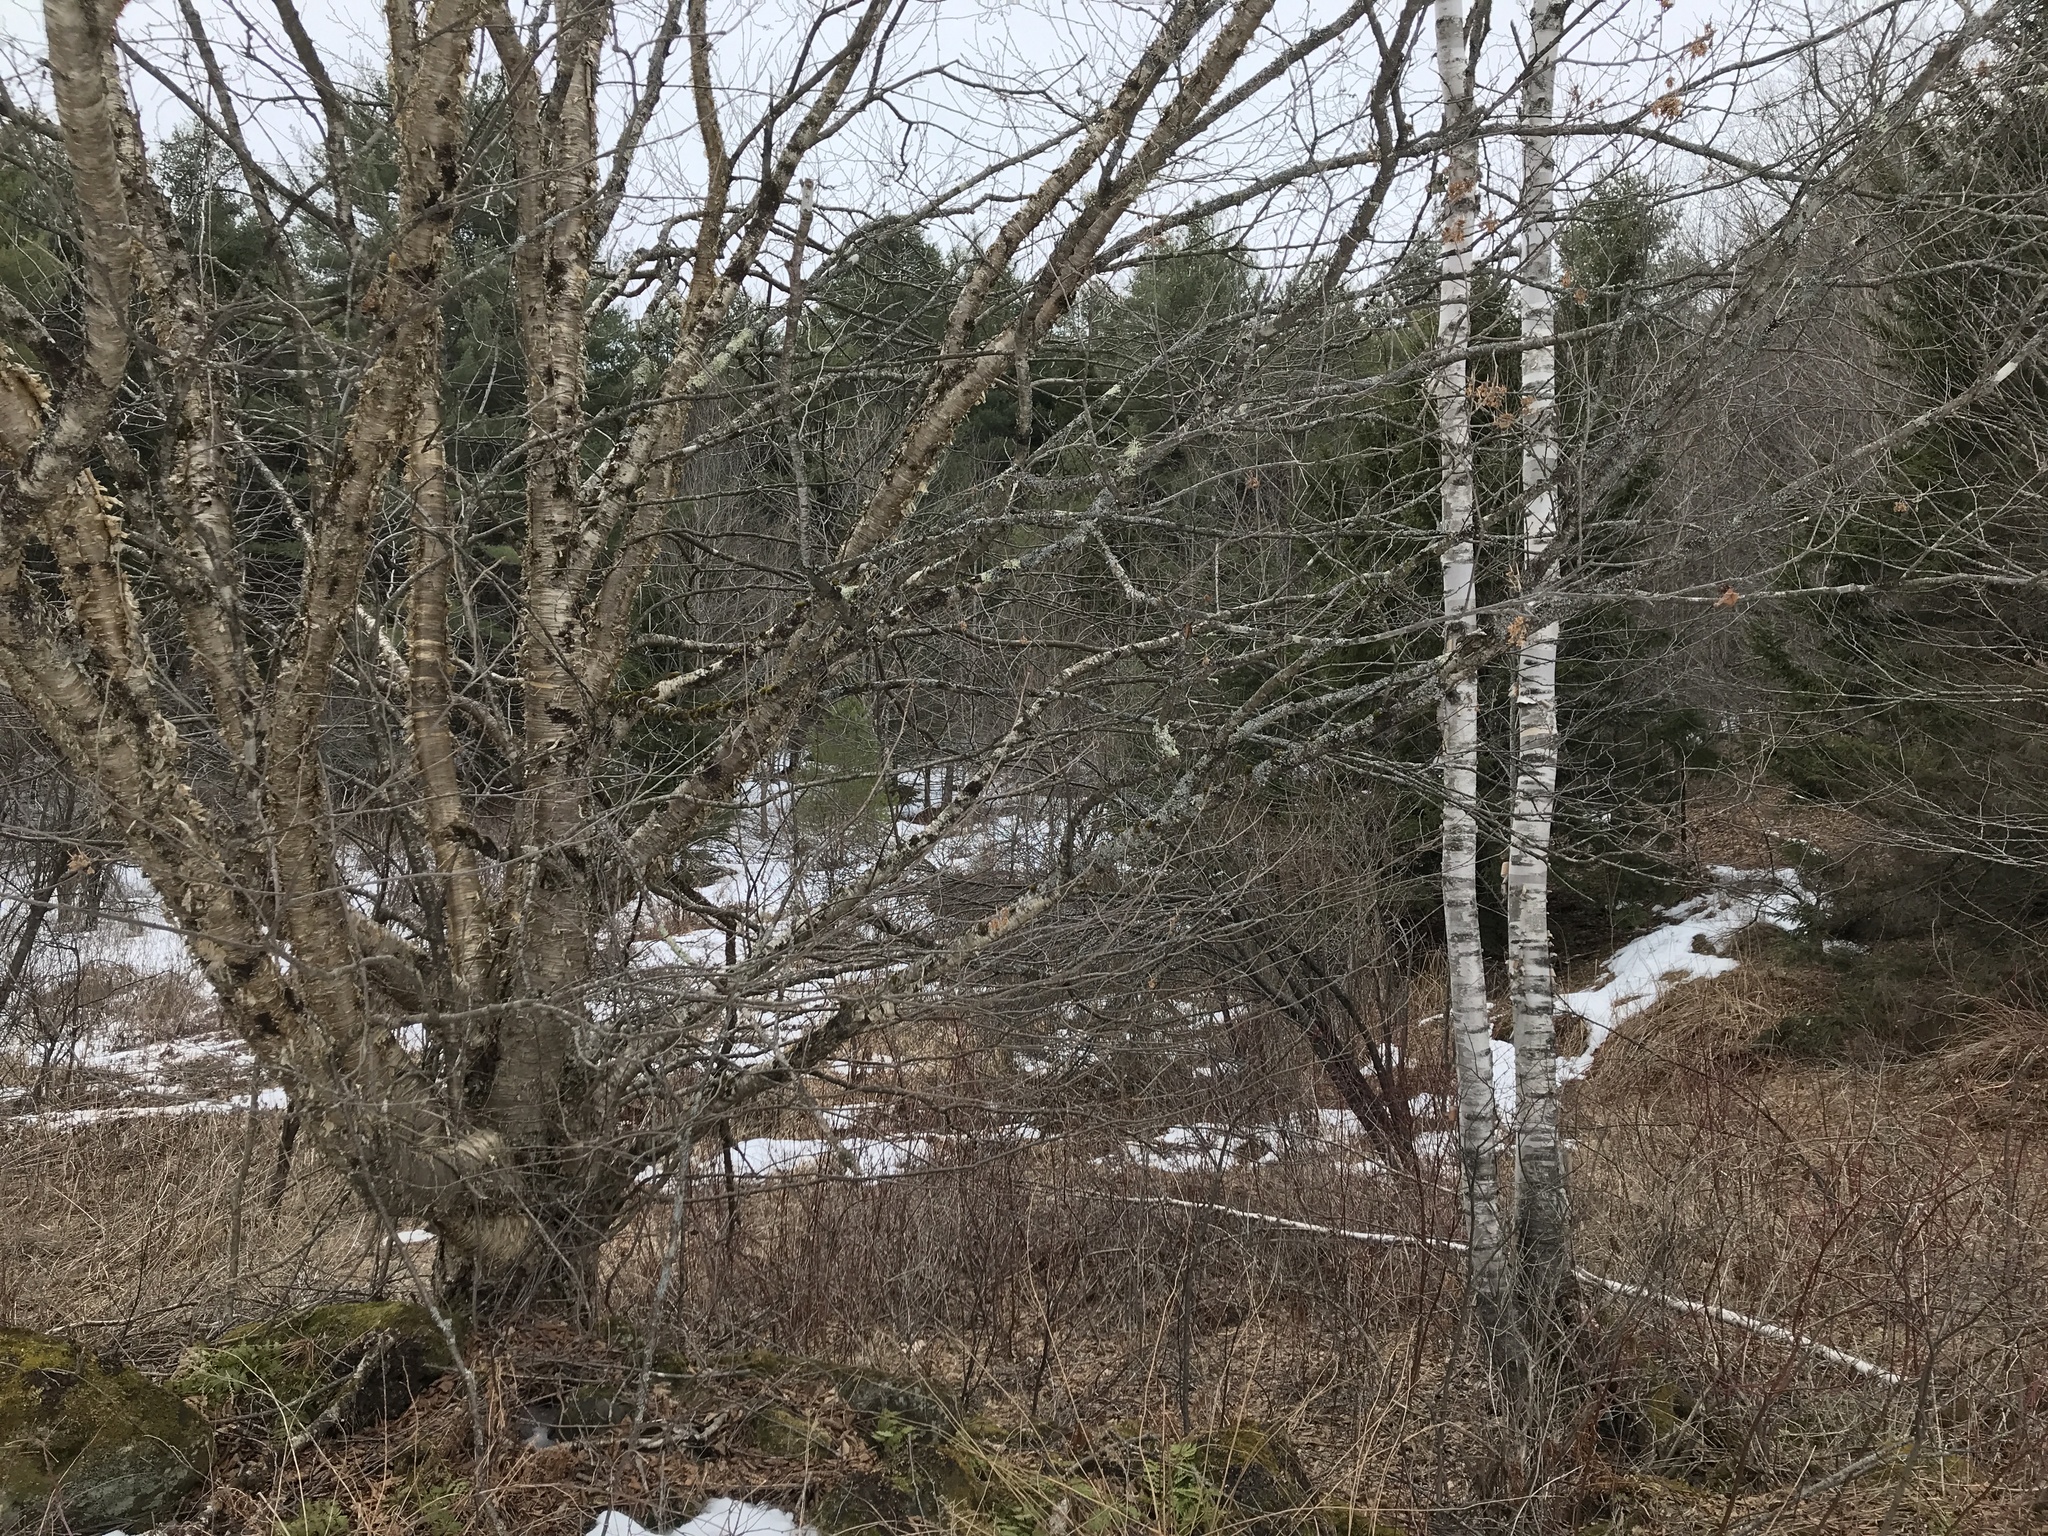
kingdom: Plantae
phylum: Tracheophyta
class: Magnoliopsida
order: Fagales
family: Betulaceae
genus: Betula
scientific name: Betula alleghaniensis
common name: Yellow birch
